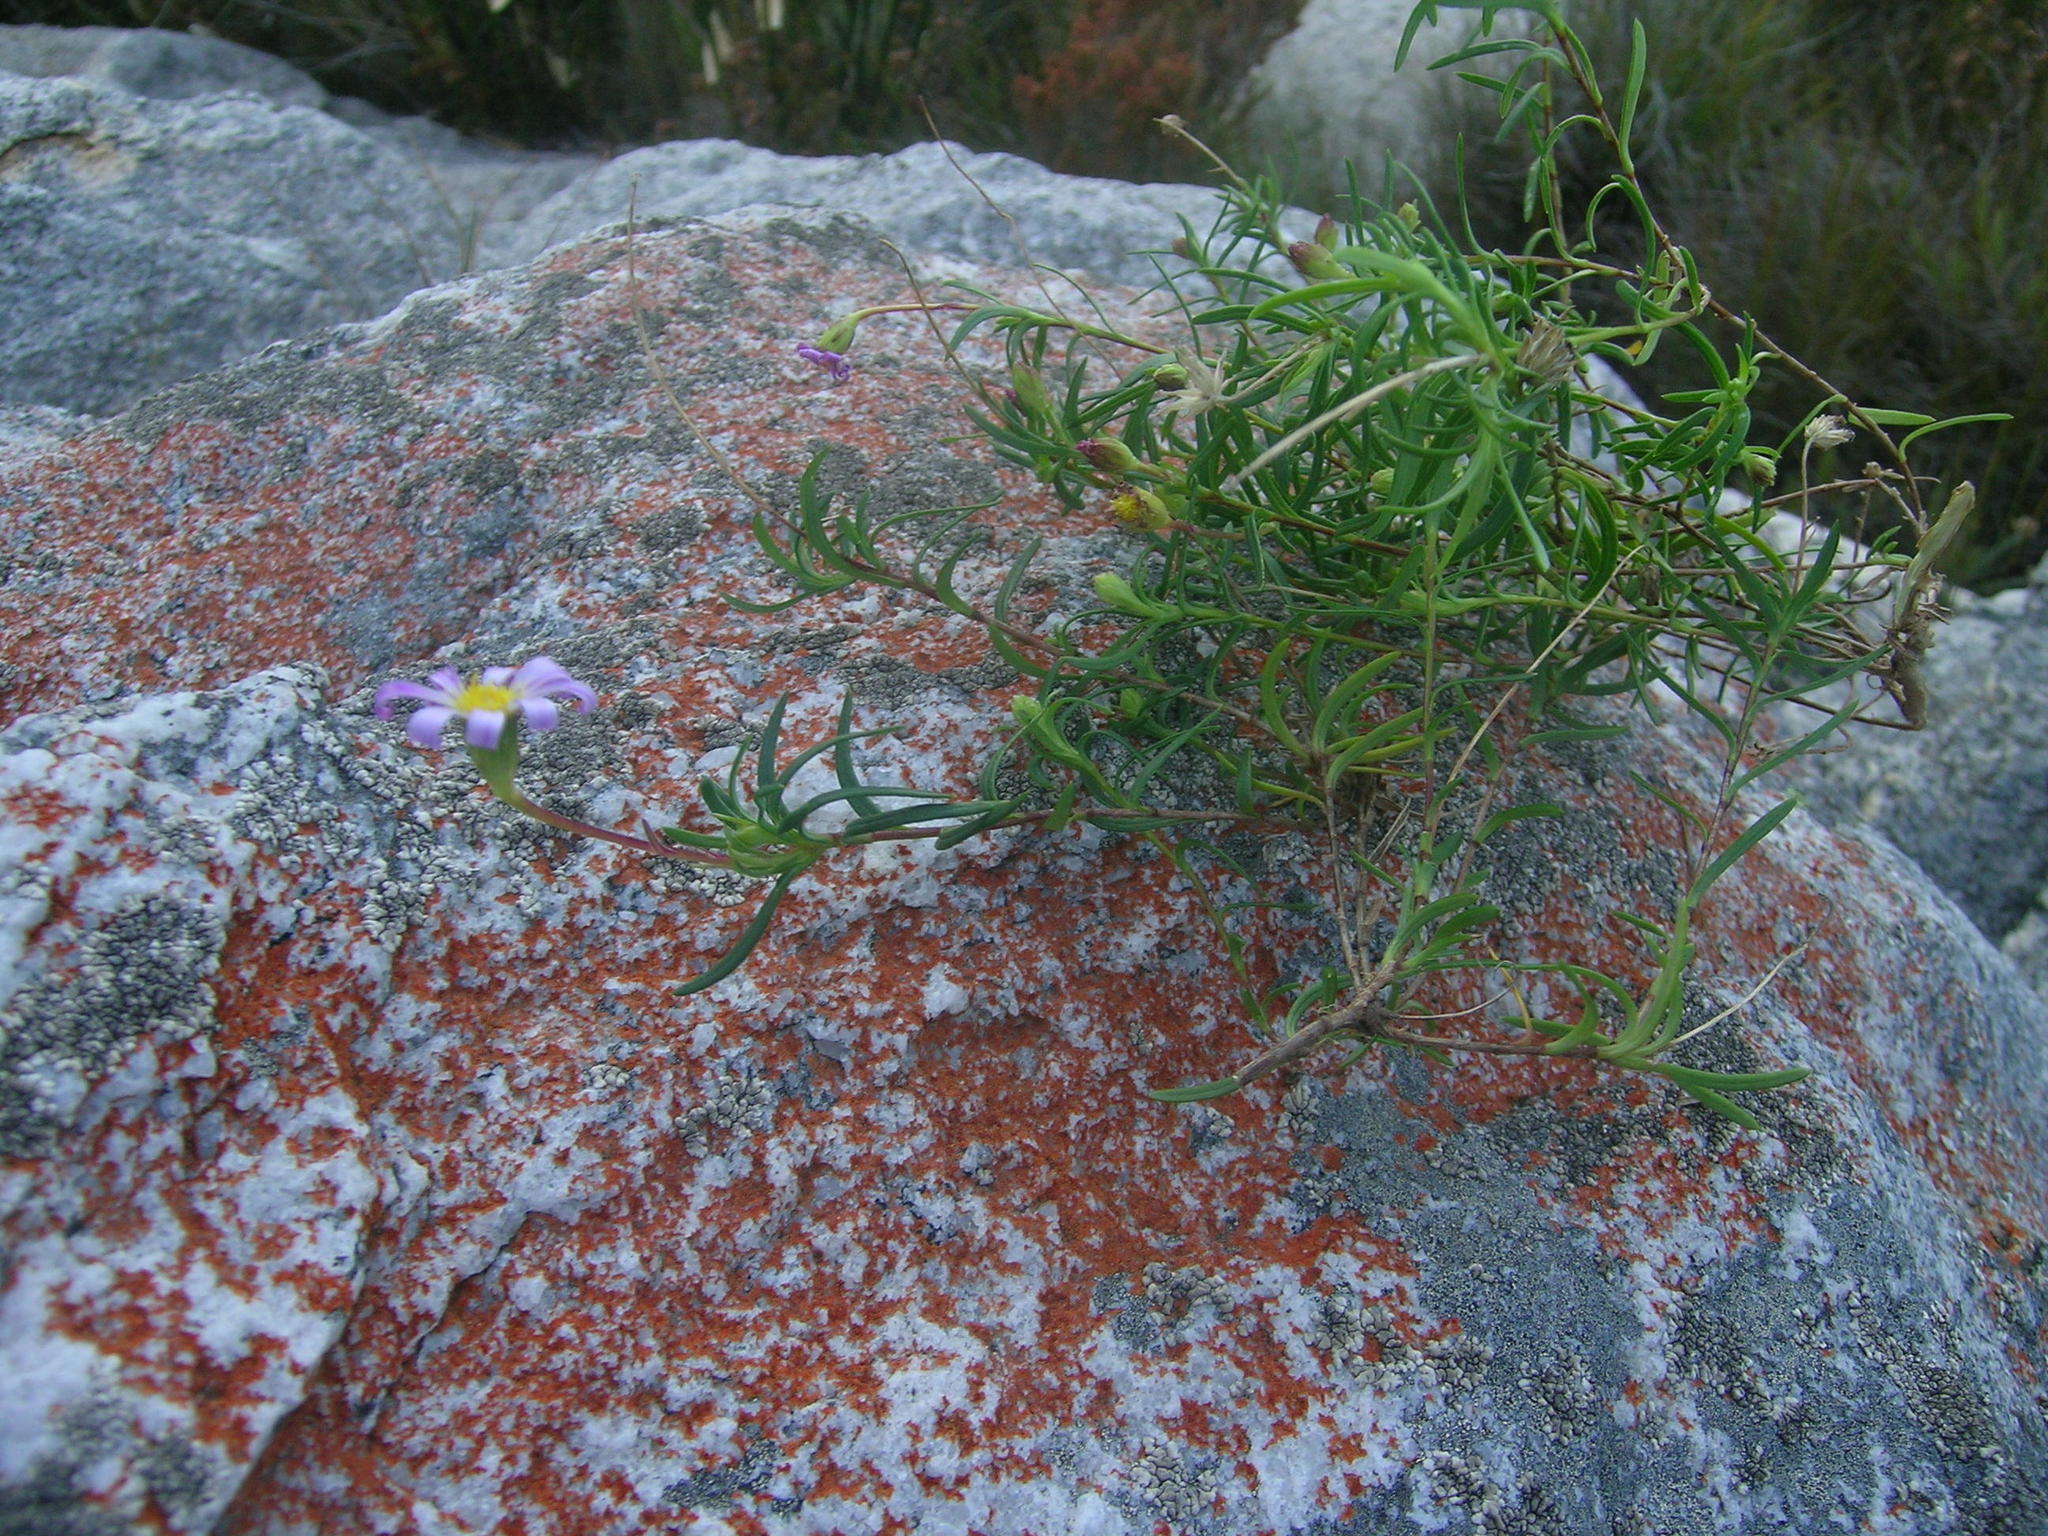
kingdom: Plantae
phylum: Tracheophyta
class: Magnoliopsida
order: Asterales
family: Asteraceae
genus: Felicia
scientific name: Felicia comptonii
